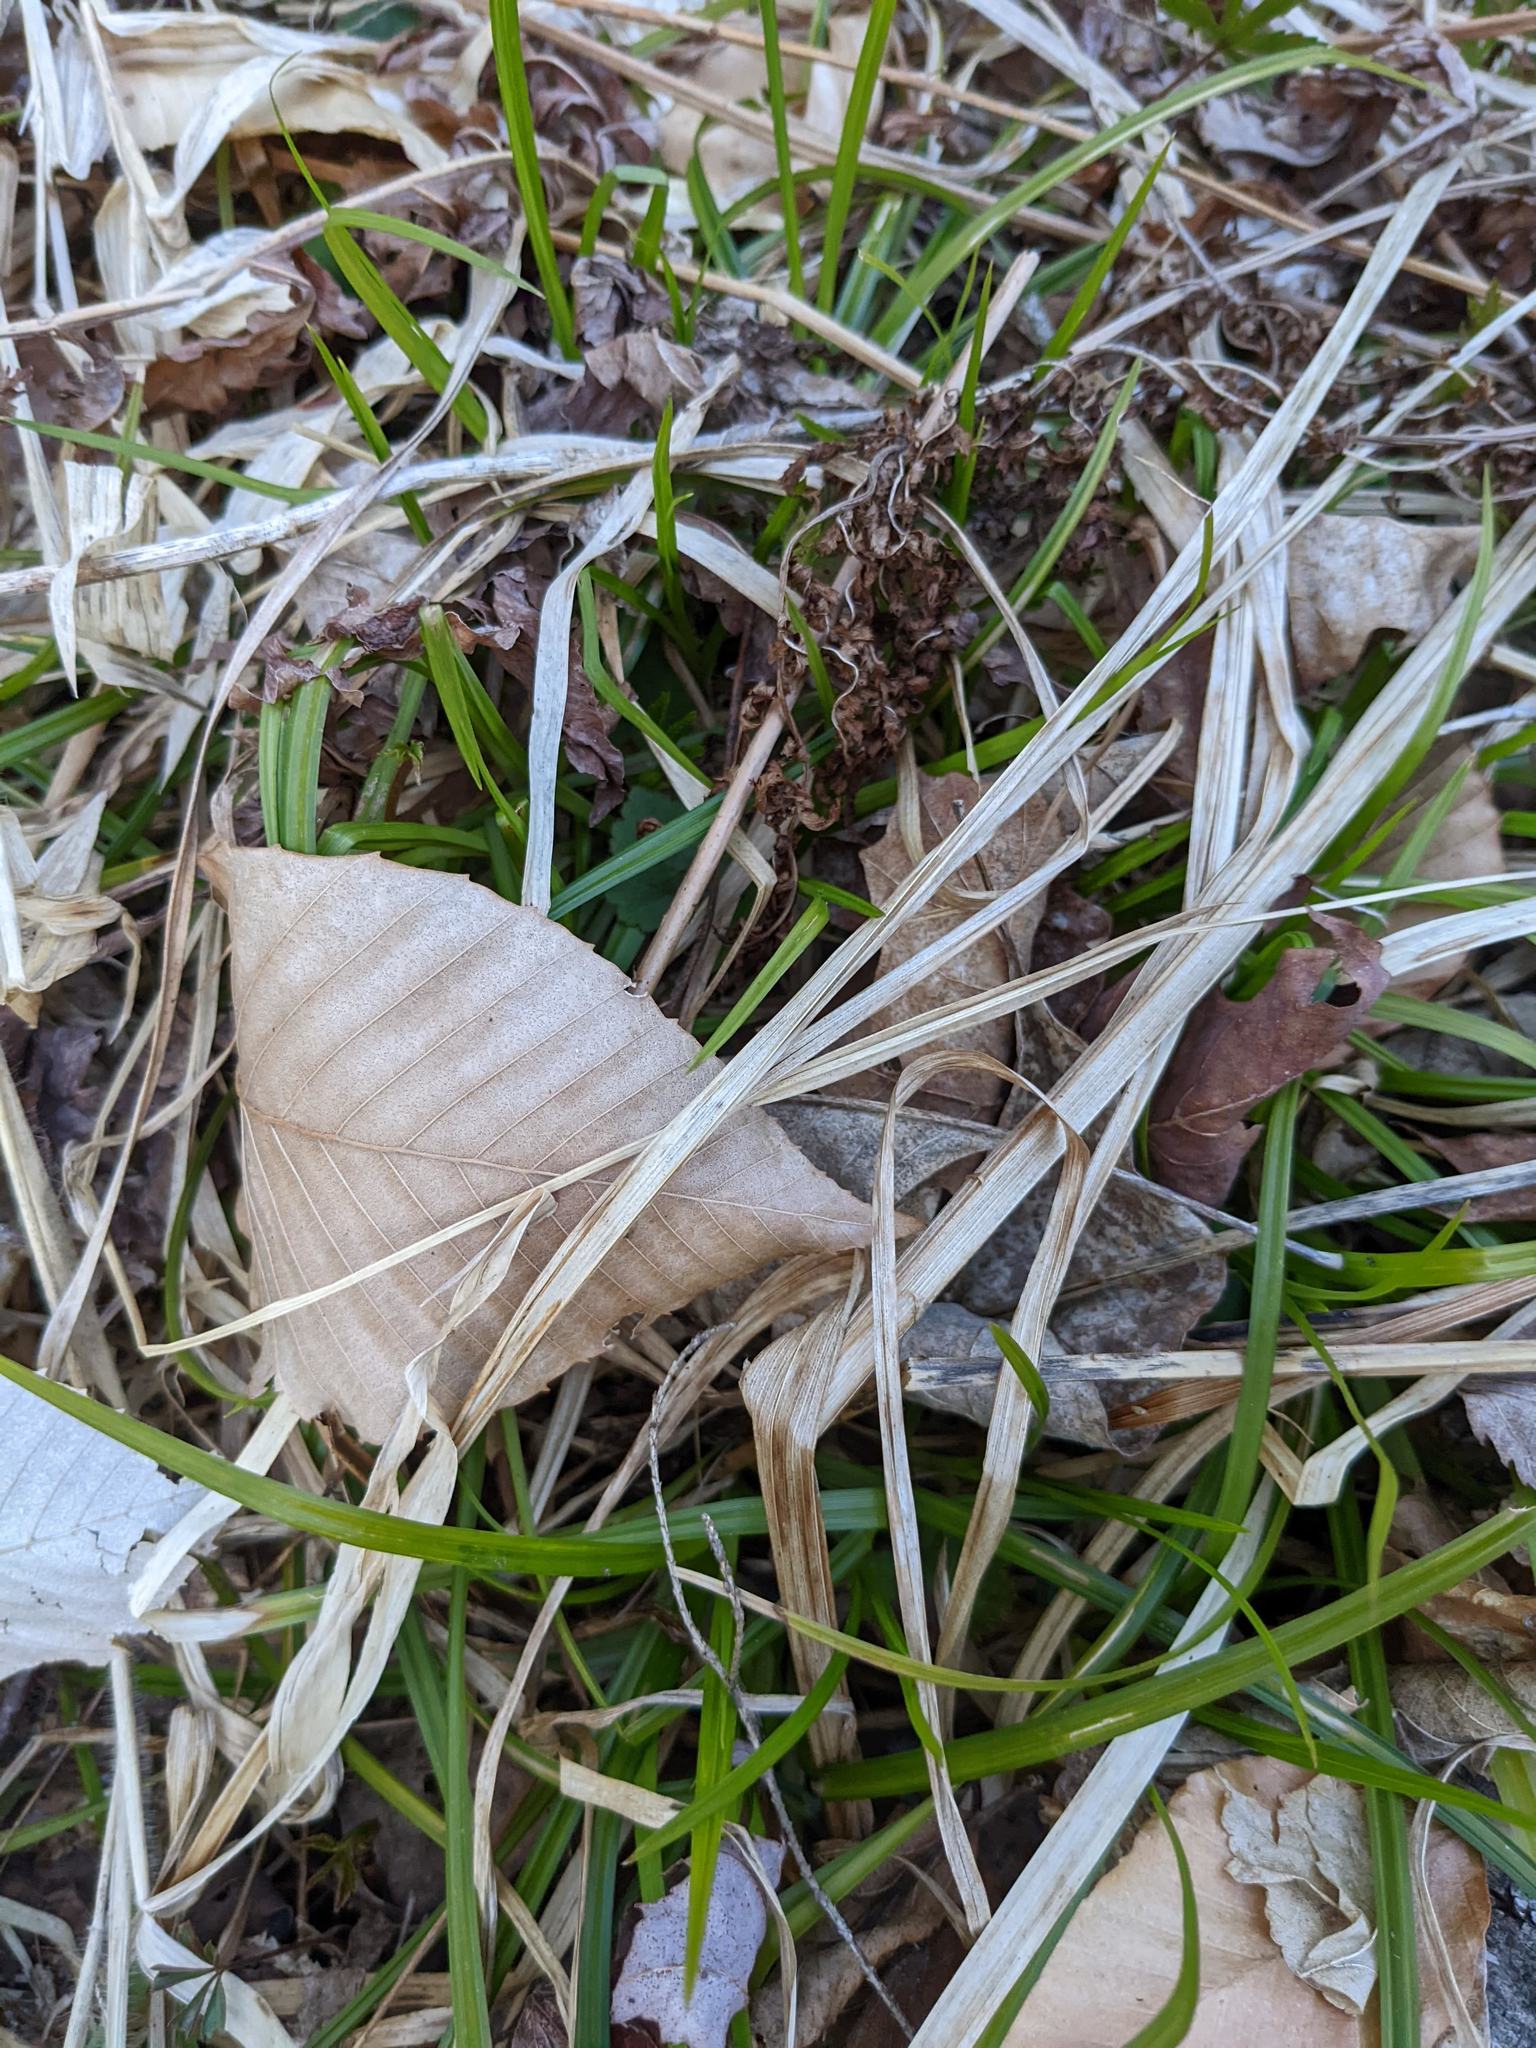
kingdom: Plantae
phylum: Tracheophyta
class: Magnoliopsida
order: Fagales
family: Fagaceae
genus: Fagus
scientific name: Fagus grandifolia
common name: American beech
